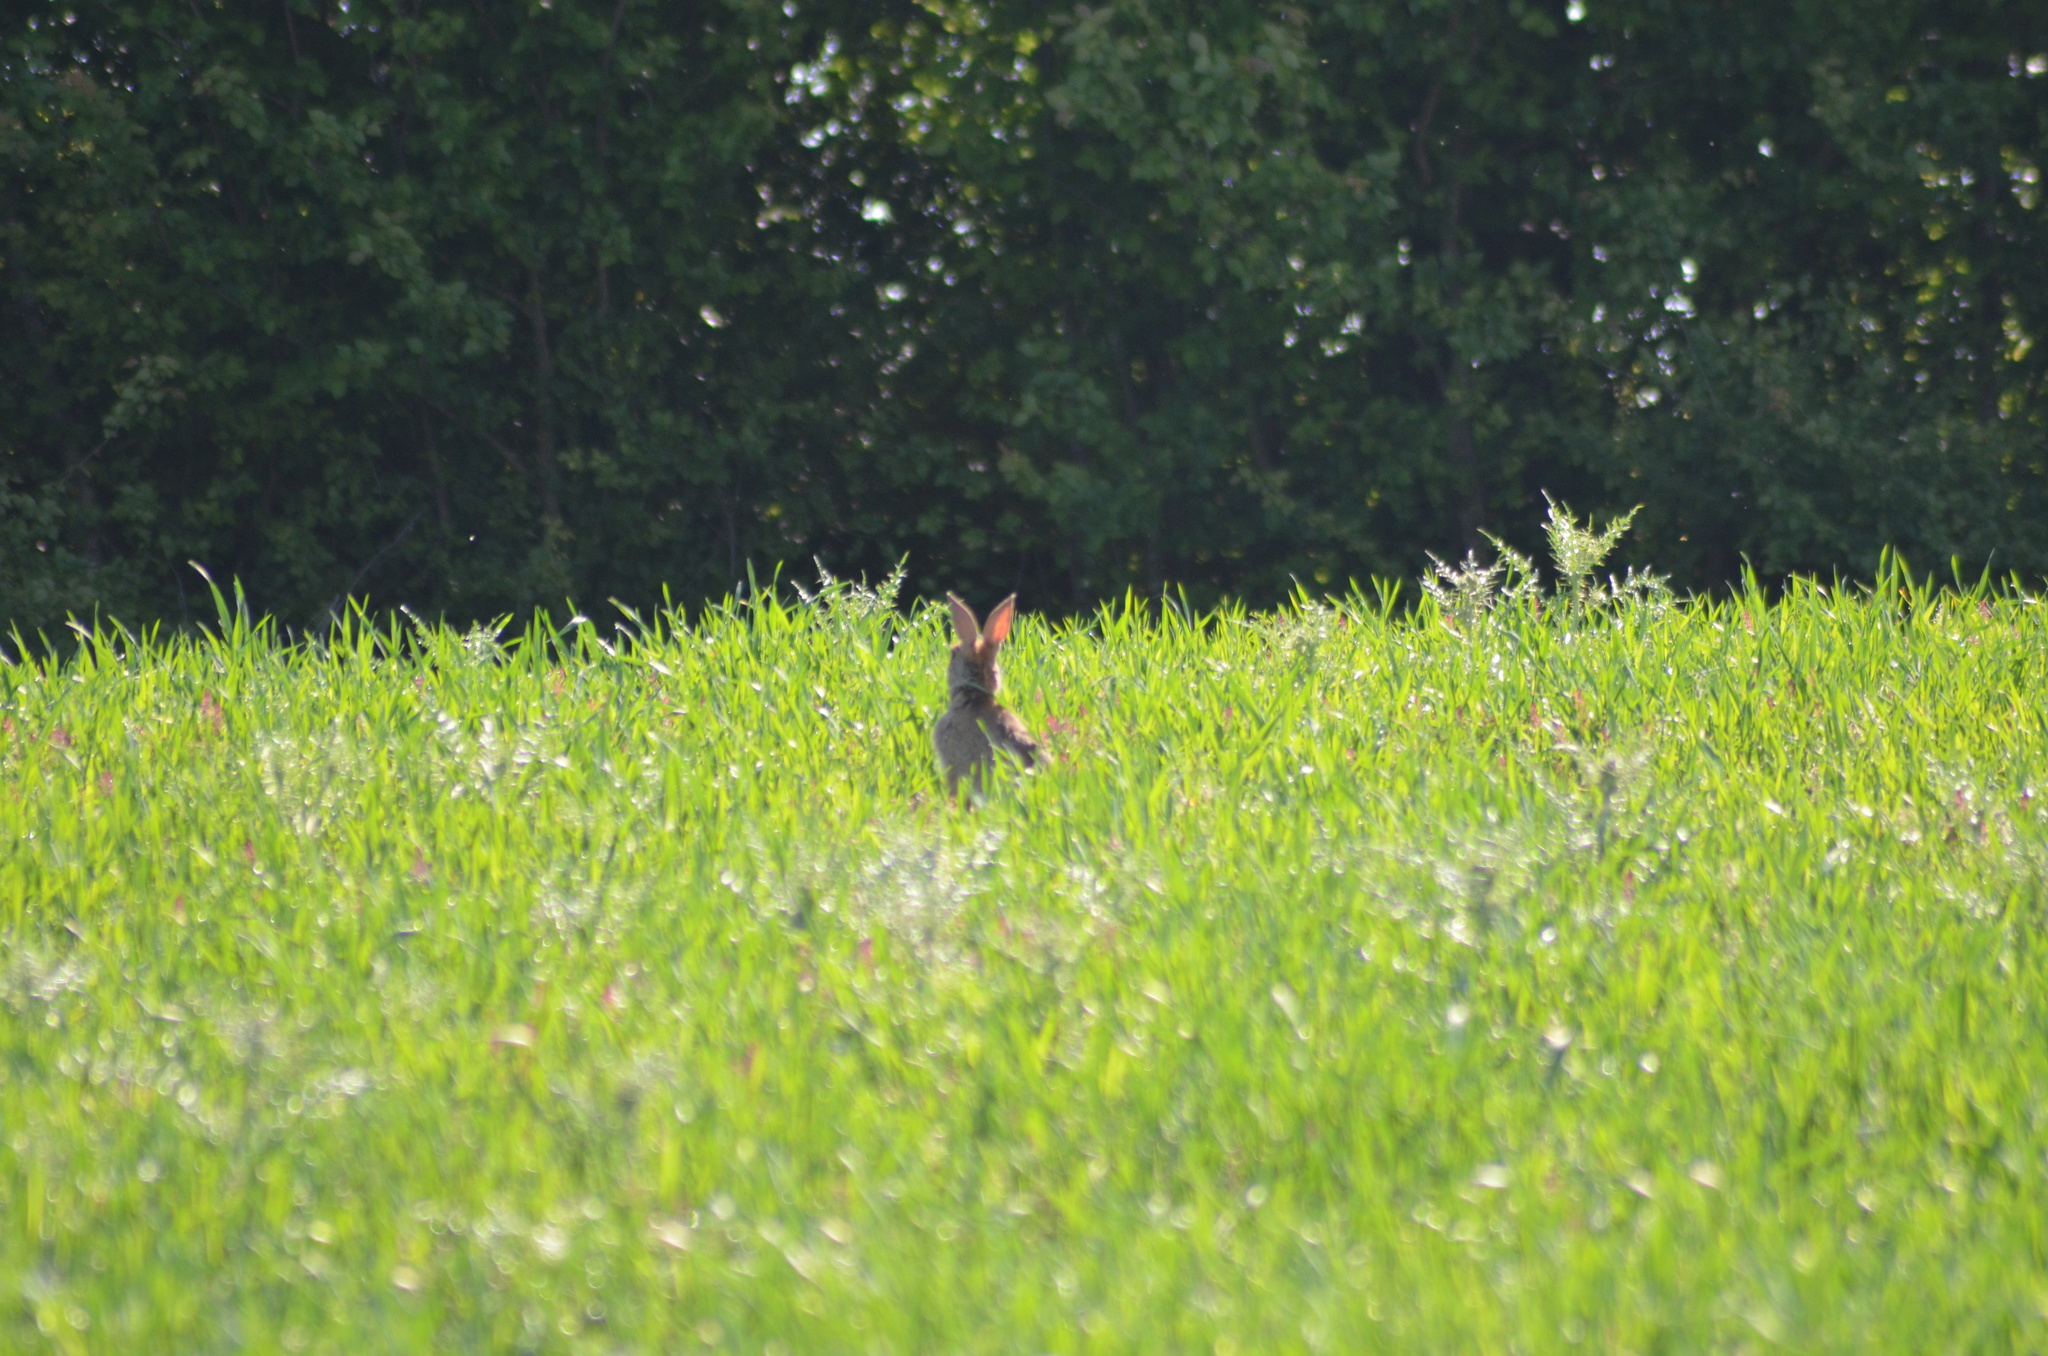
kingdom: Animalia
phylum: Chordata
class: Mammalia
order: Lagomorpha
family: Leporidae
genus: Oryctolagus
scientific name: Oryctolagus cuniculus
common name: European rabbit
